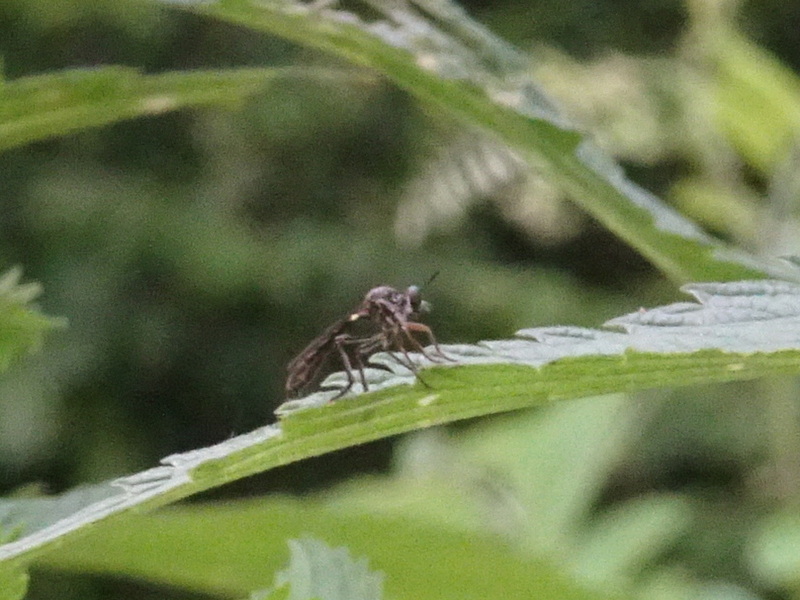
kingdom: Animalia
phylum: Arthropoda
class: Insecta
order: Diptera
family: Asilidae
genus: Dioctria
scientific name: Dioctria hyalipennis
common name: Stripe-legged robberfly
